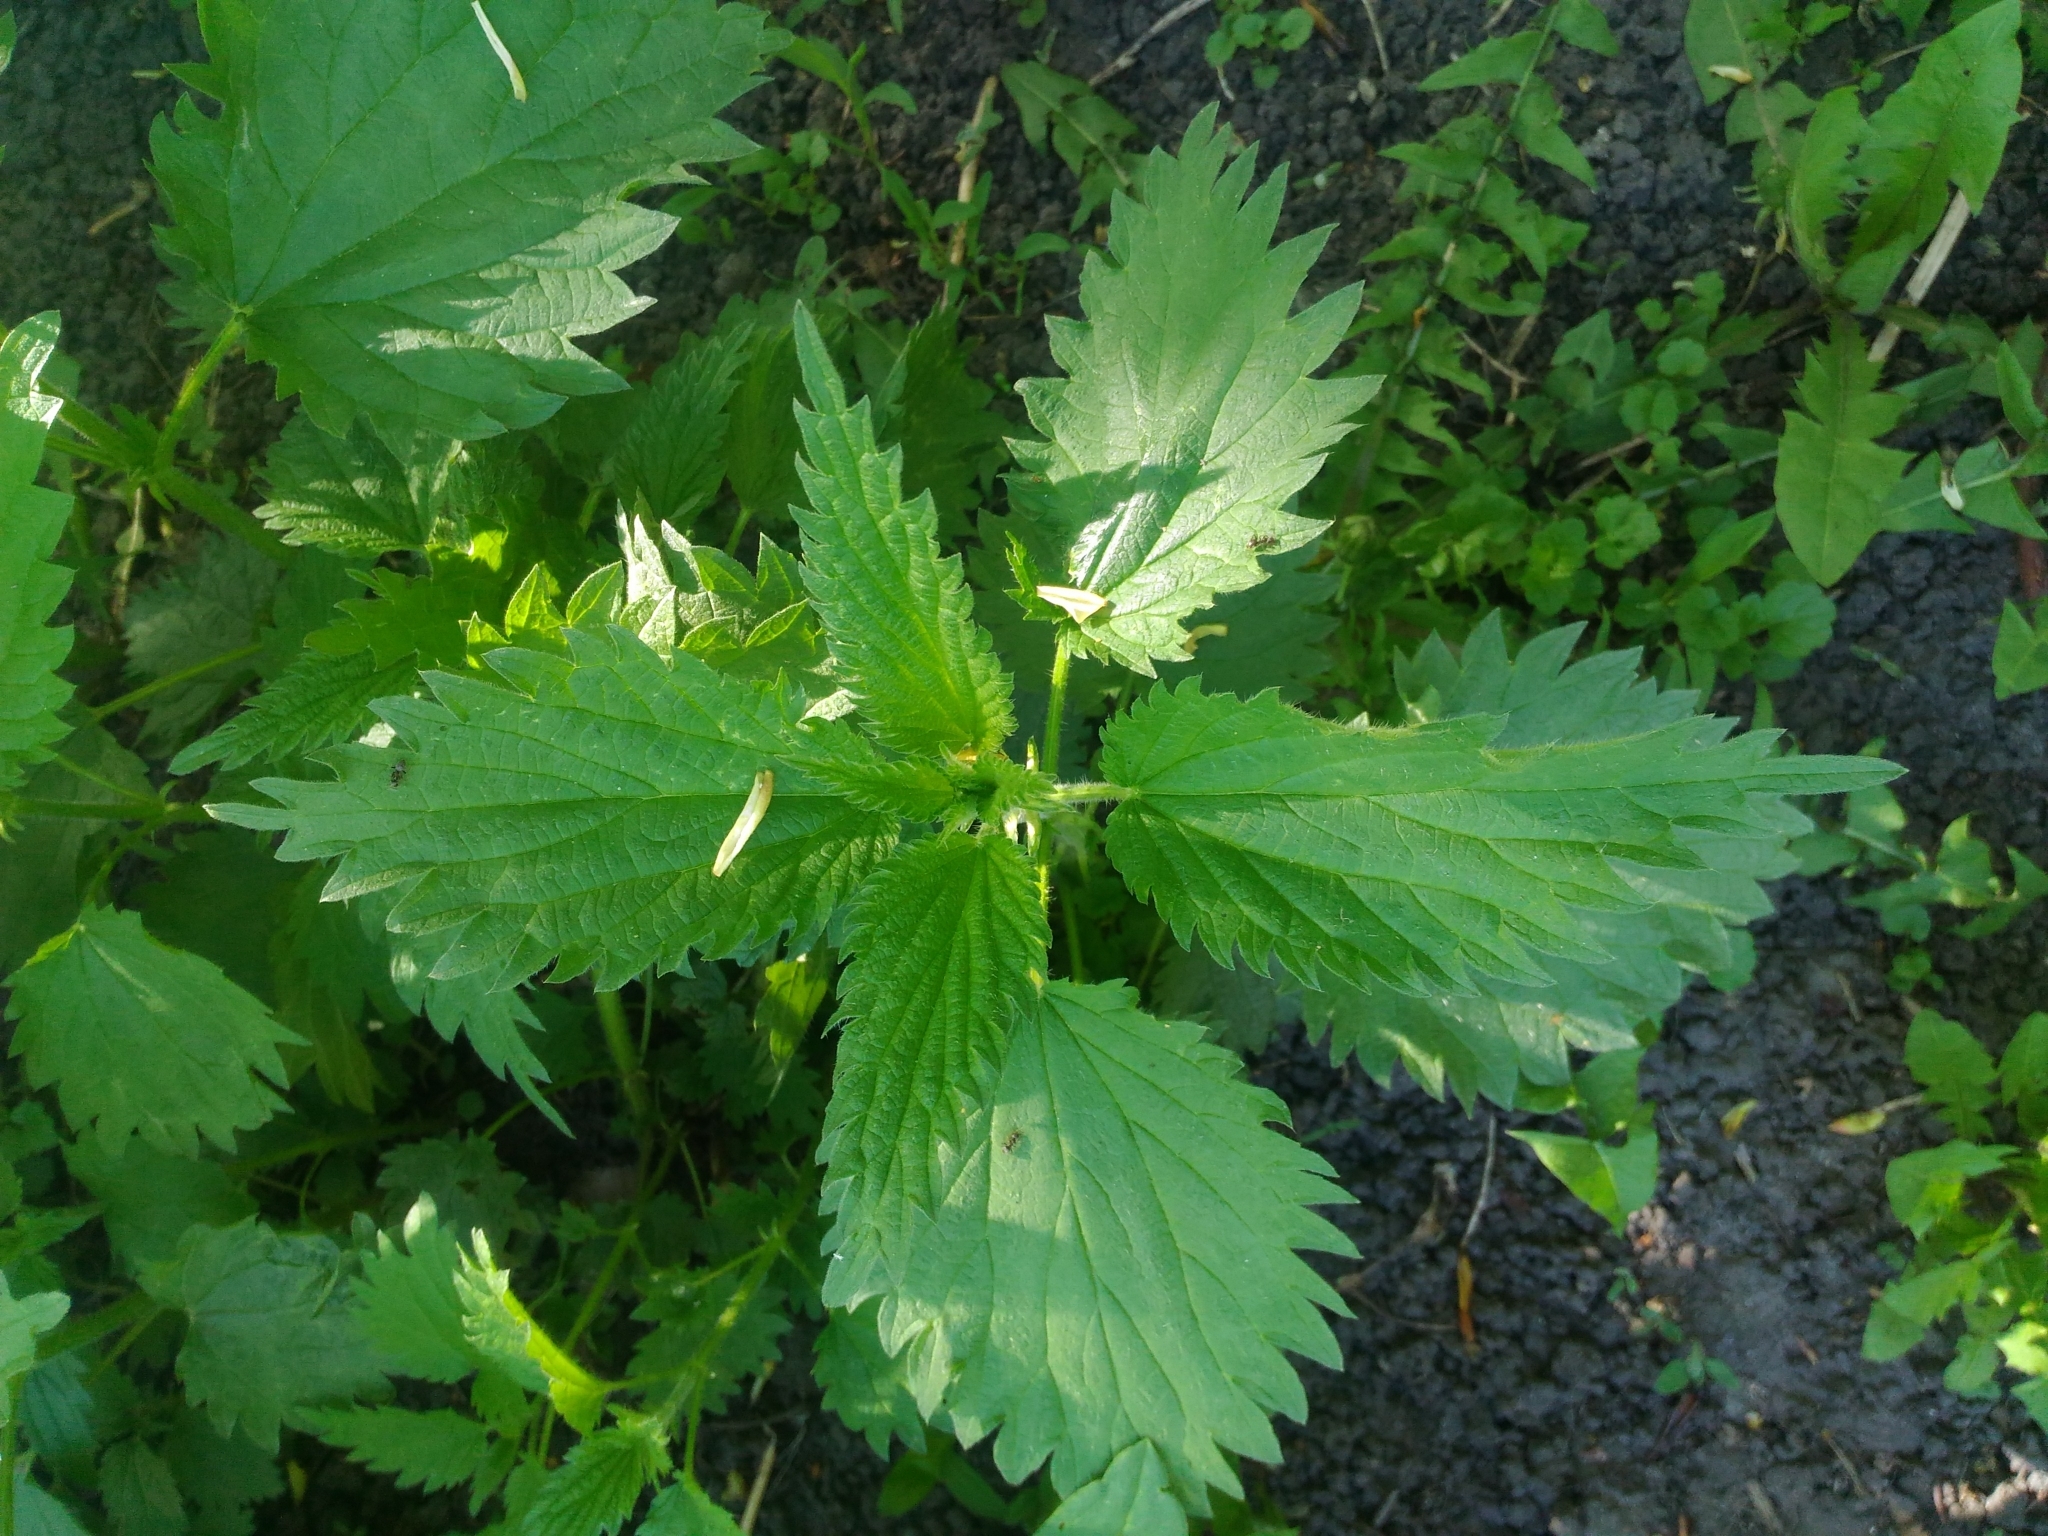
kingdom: Plantae
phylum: Tracheophyta
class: Magnoliopsida
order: Rosales
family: Urticaceae
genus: Urtica
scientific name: Urtica dioica
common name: Common nettle
